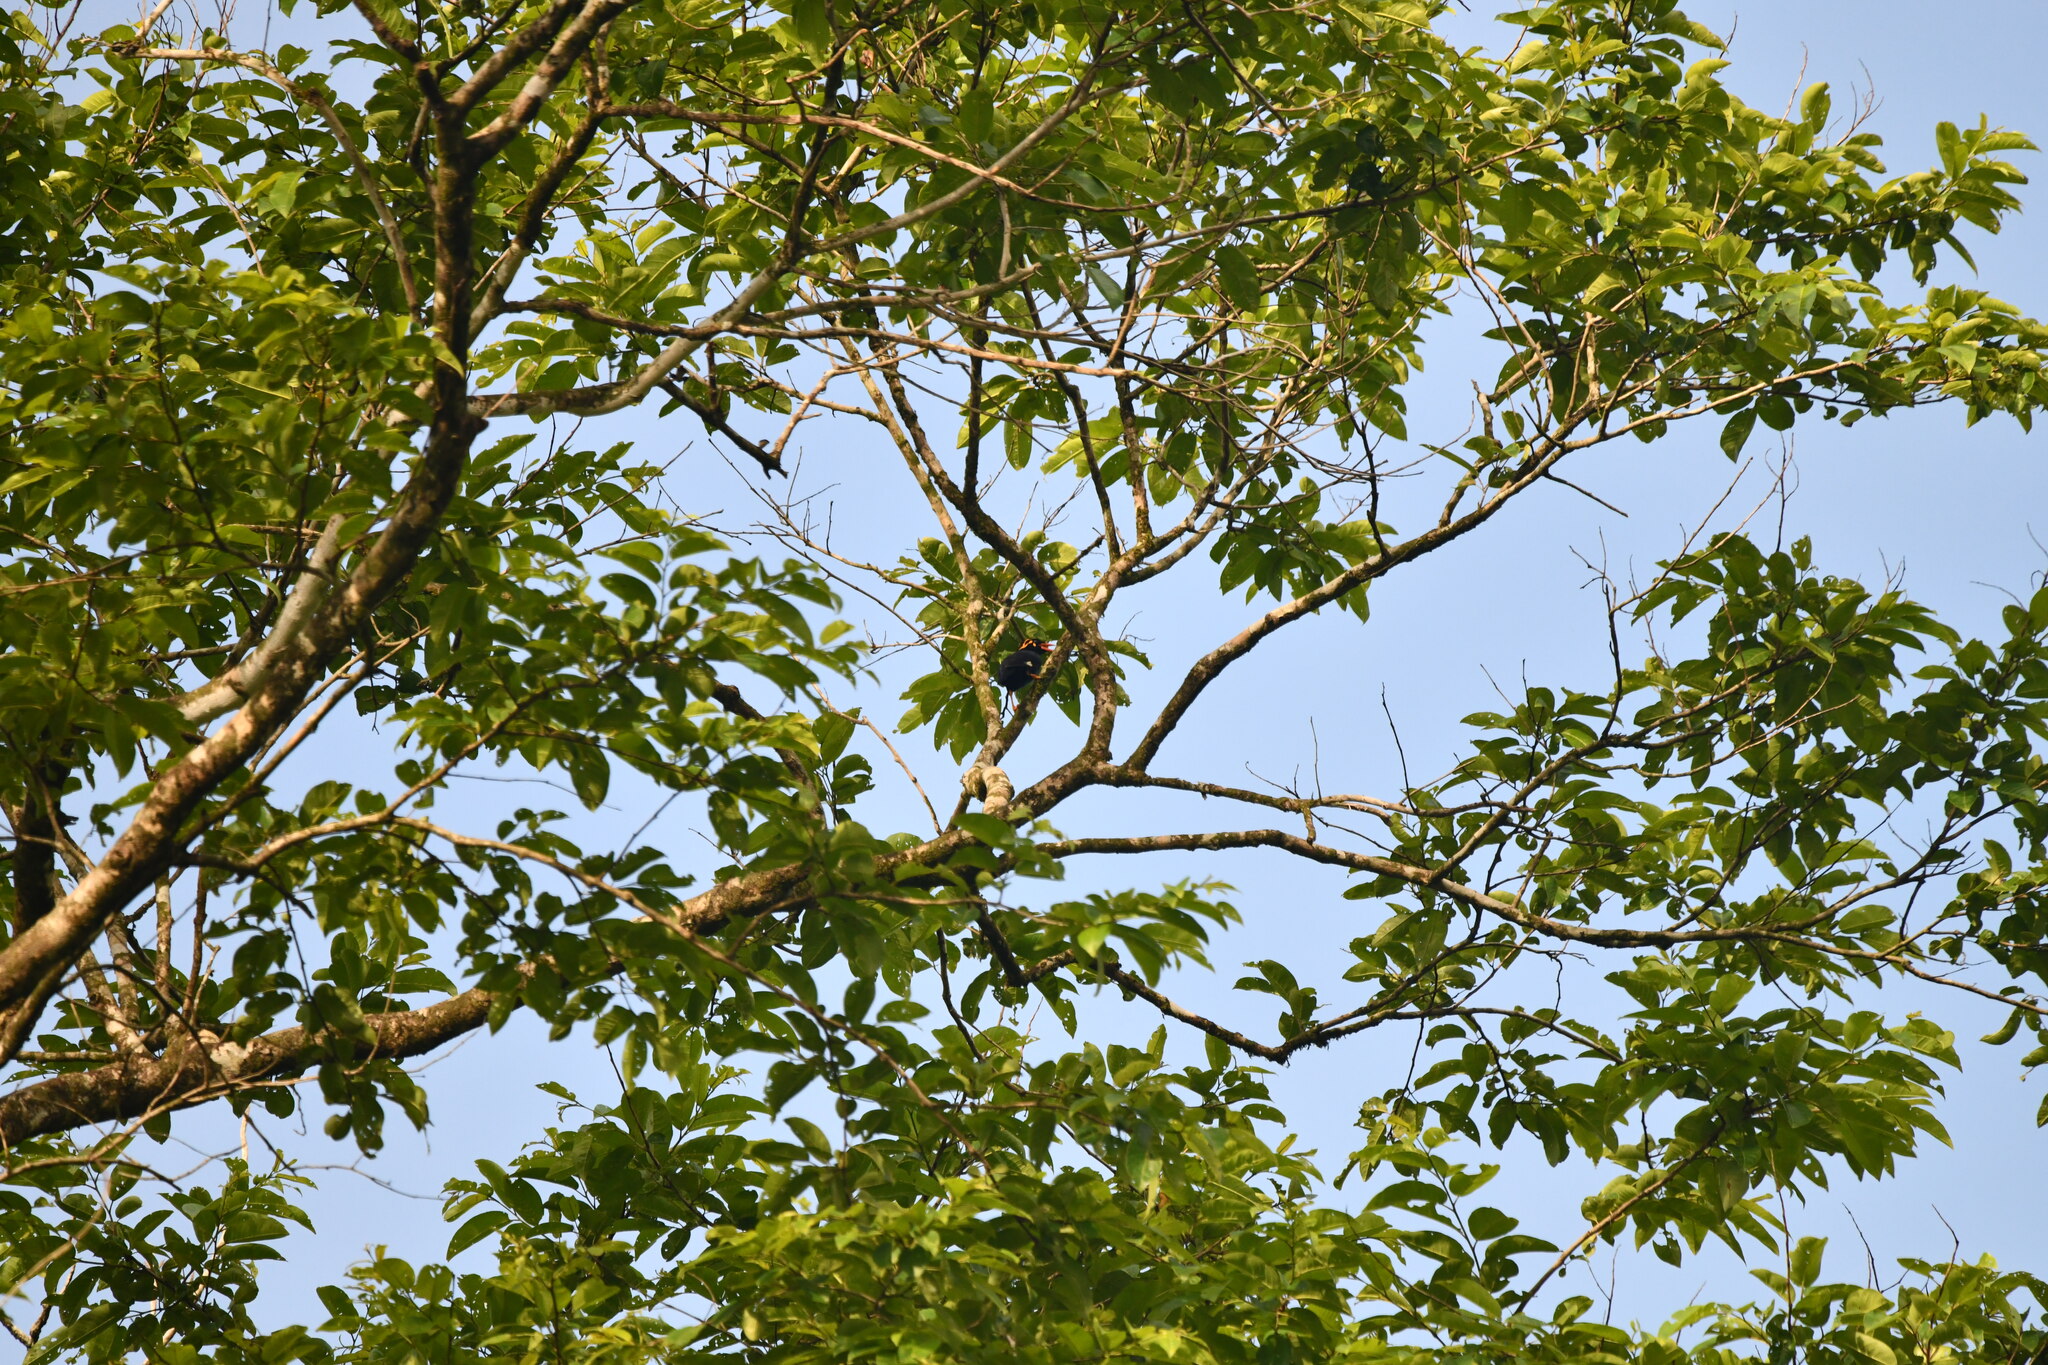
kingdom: Animalia
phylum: Chordata
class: Aves
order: Passeriformes
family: Sturnidae
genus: Gracula
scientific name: Gracula indica
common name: Southern hill myna
